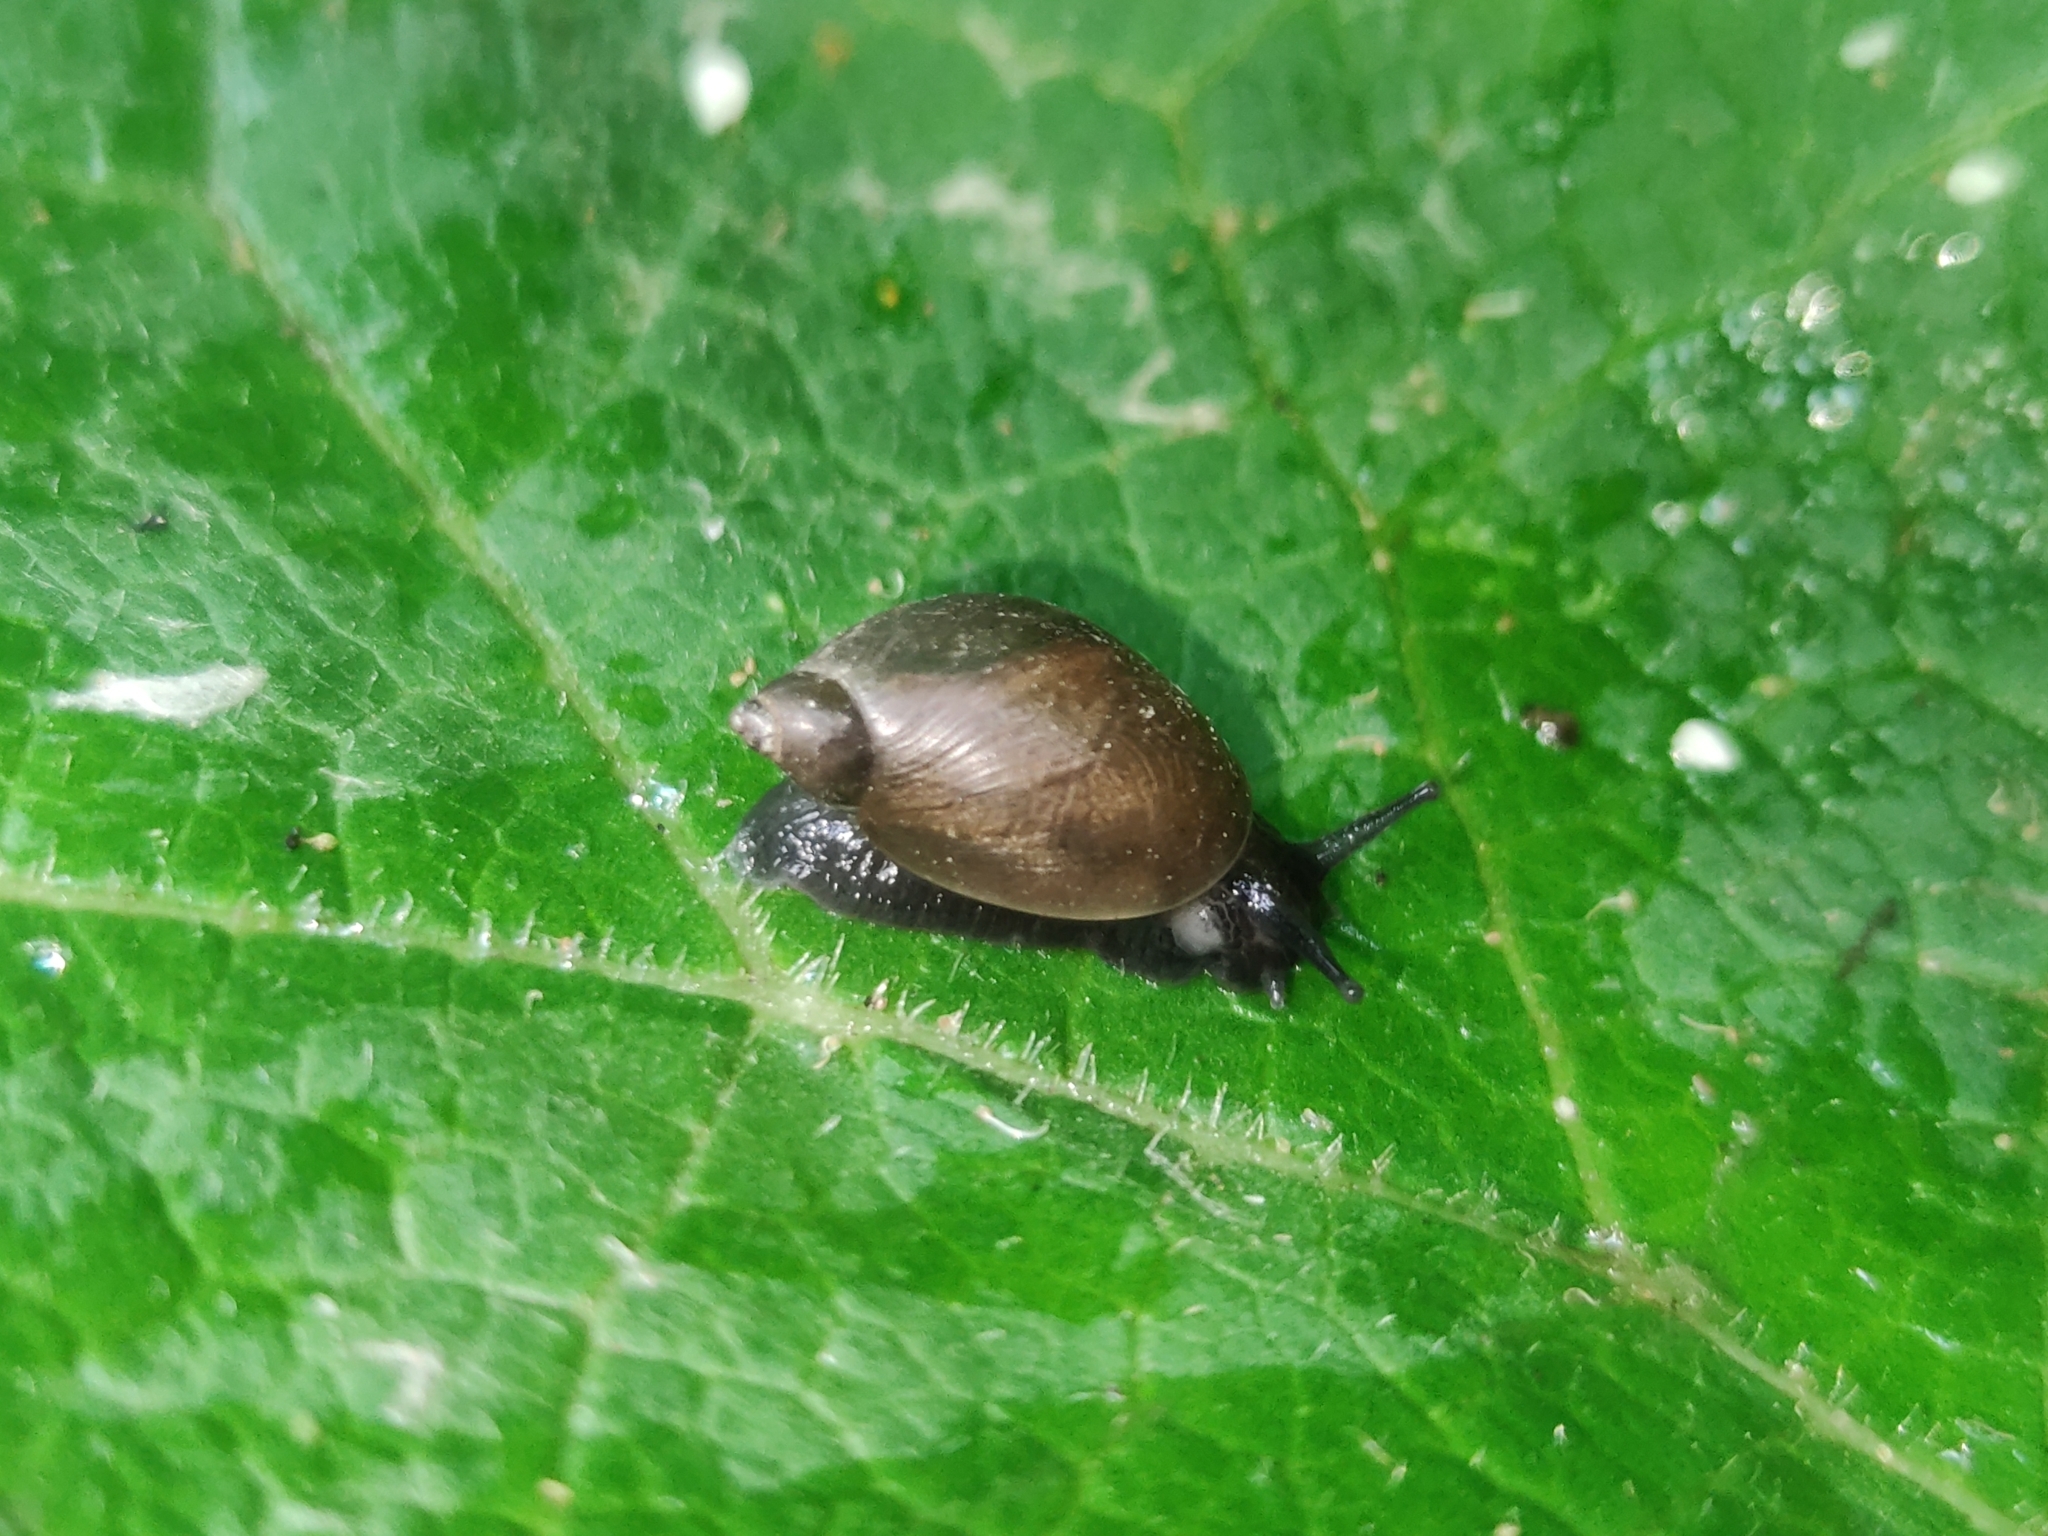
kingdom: Animalia
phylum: Mollusca
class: Gastropoda
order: Stylommatophora
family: Succineidae
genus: Succinea
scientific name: Succinea putris
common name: European ambersnail
